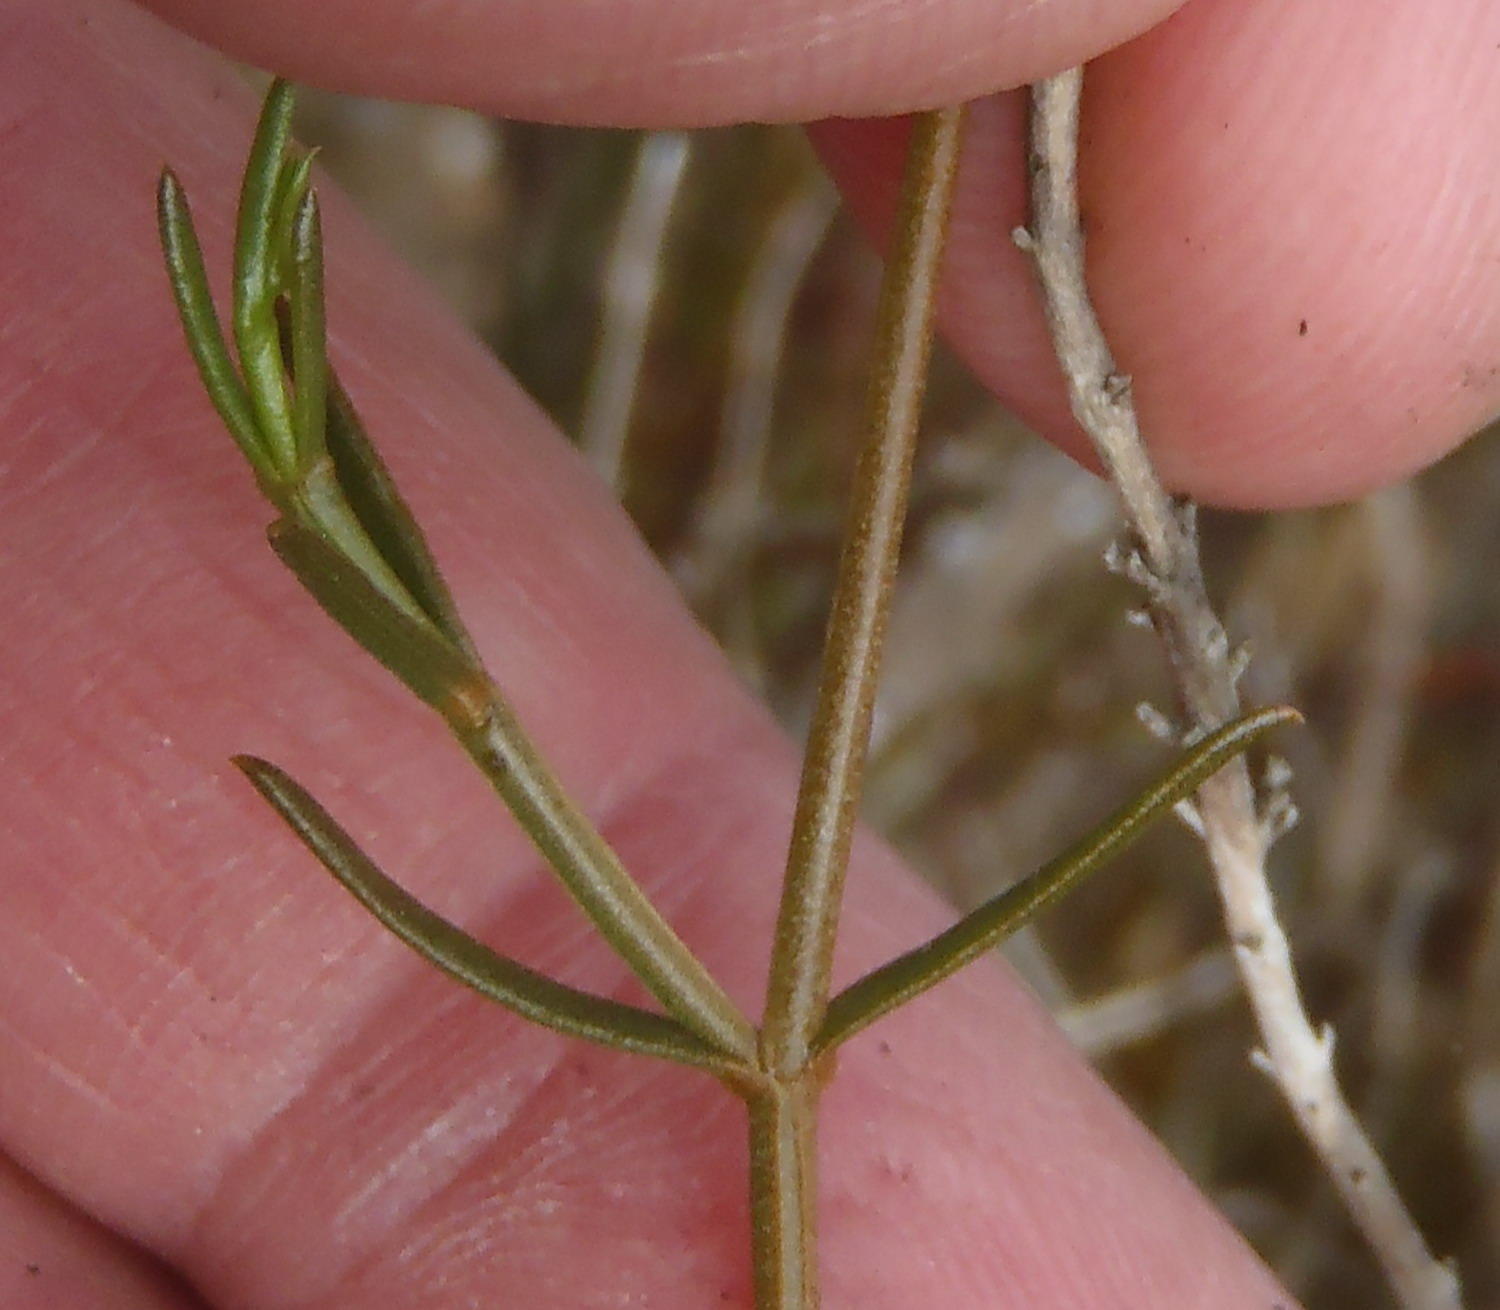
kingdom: Plantae
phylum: Tracheophyta
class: Magnoliopsida
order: Gentianales
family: Gentianaceae
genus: Chironia
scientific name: Chironia tetragona
